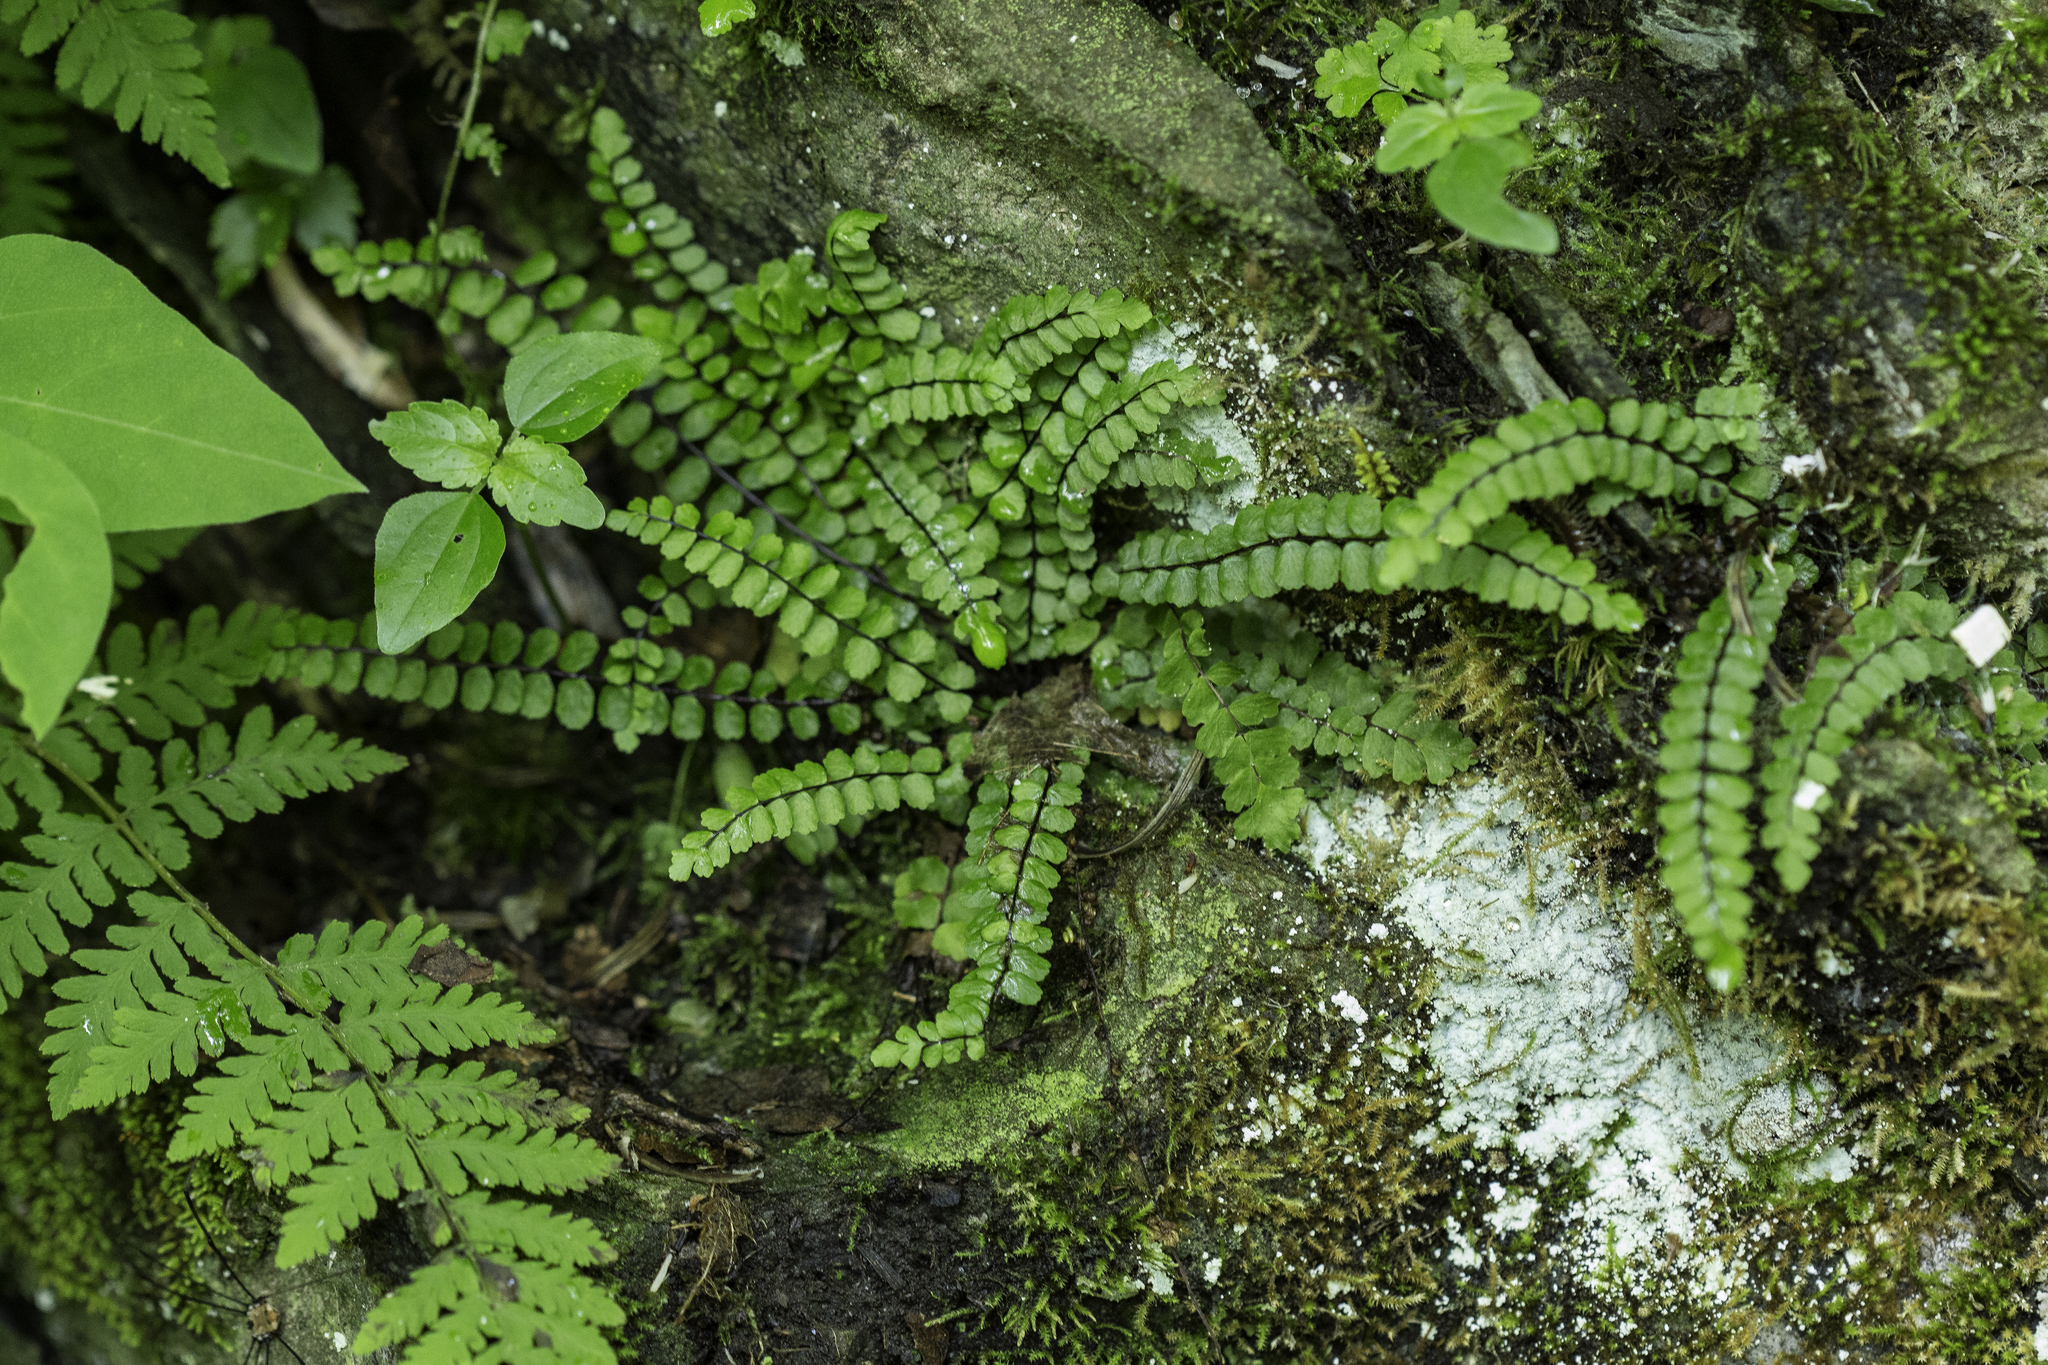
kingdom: Plantae
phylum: Tracheophyta
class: Polypodiopsida
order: Polypodiales
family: Aspleniaceae
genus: Asplenium
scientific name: Asplenium trichomanes
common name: Maidenhair spleenwort
